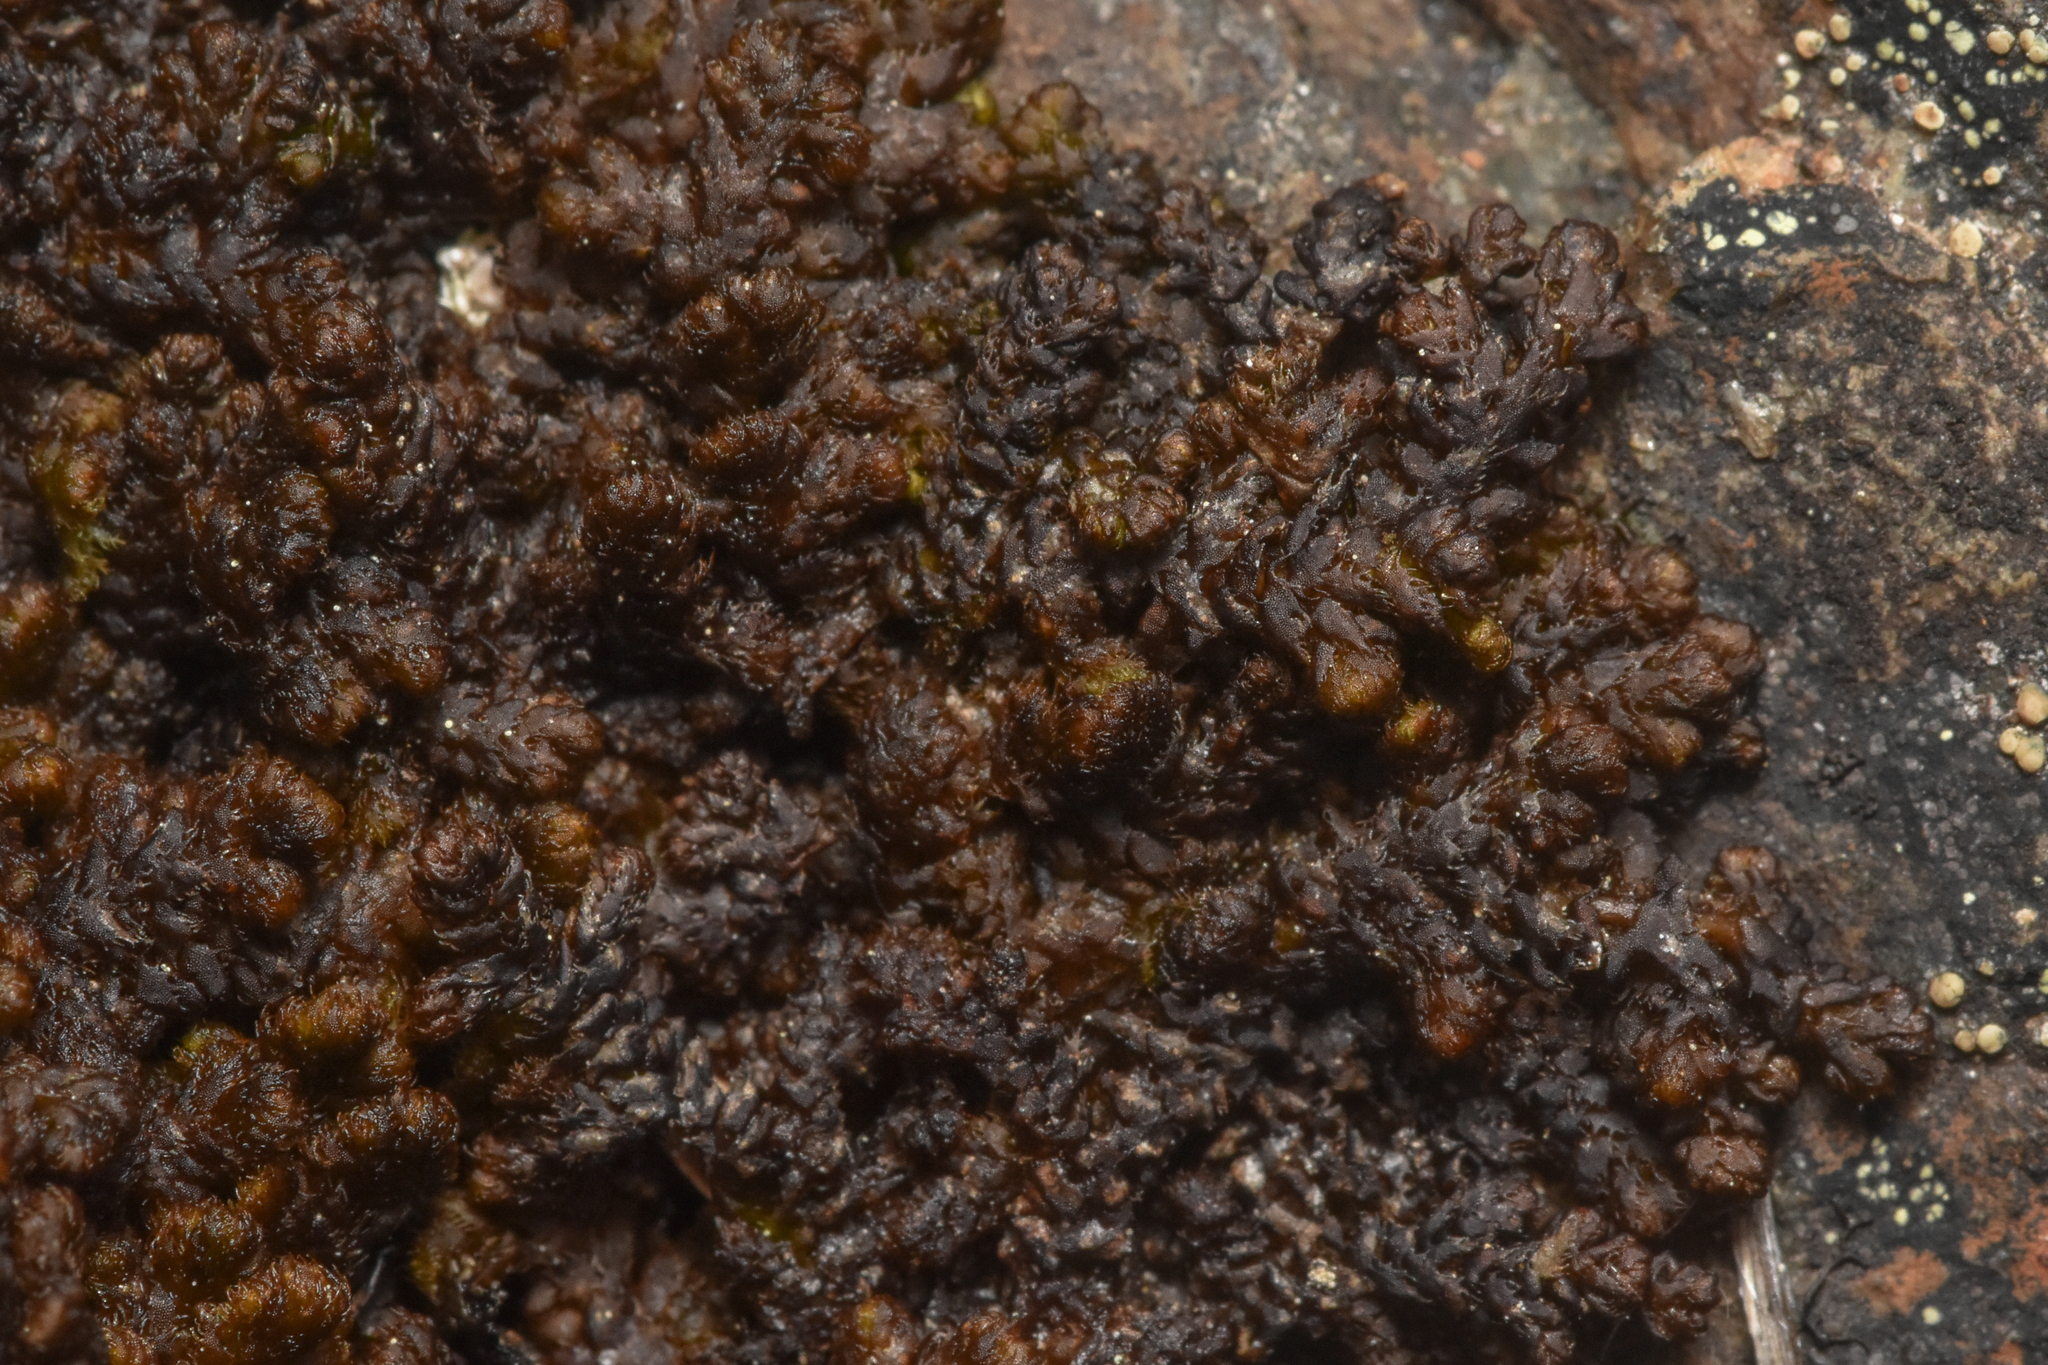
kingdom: Plantae
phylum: Marchantiophyta
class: Jungermanniopsida
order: Ptilidiales
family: Ptilidiaceae
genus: Ptilidium
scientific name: Ptilidium ciliare
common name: Ciliate fringewort
